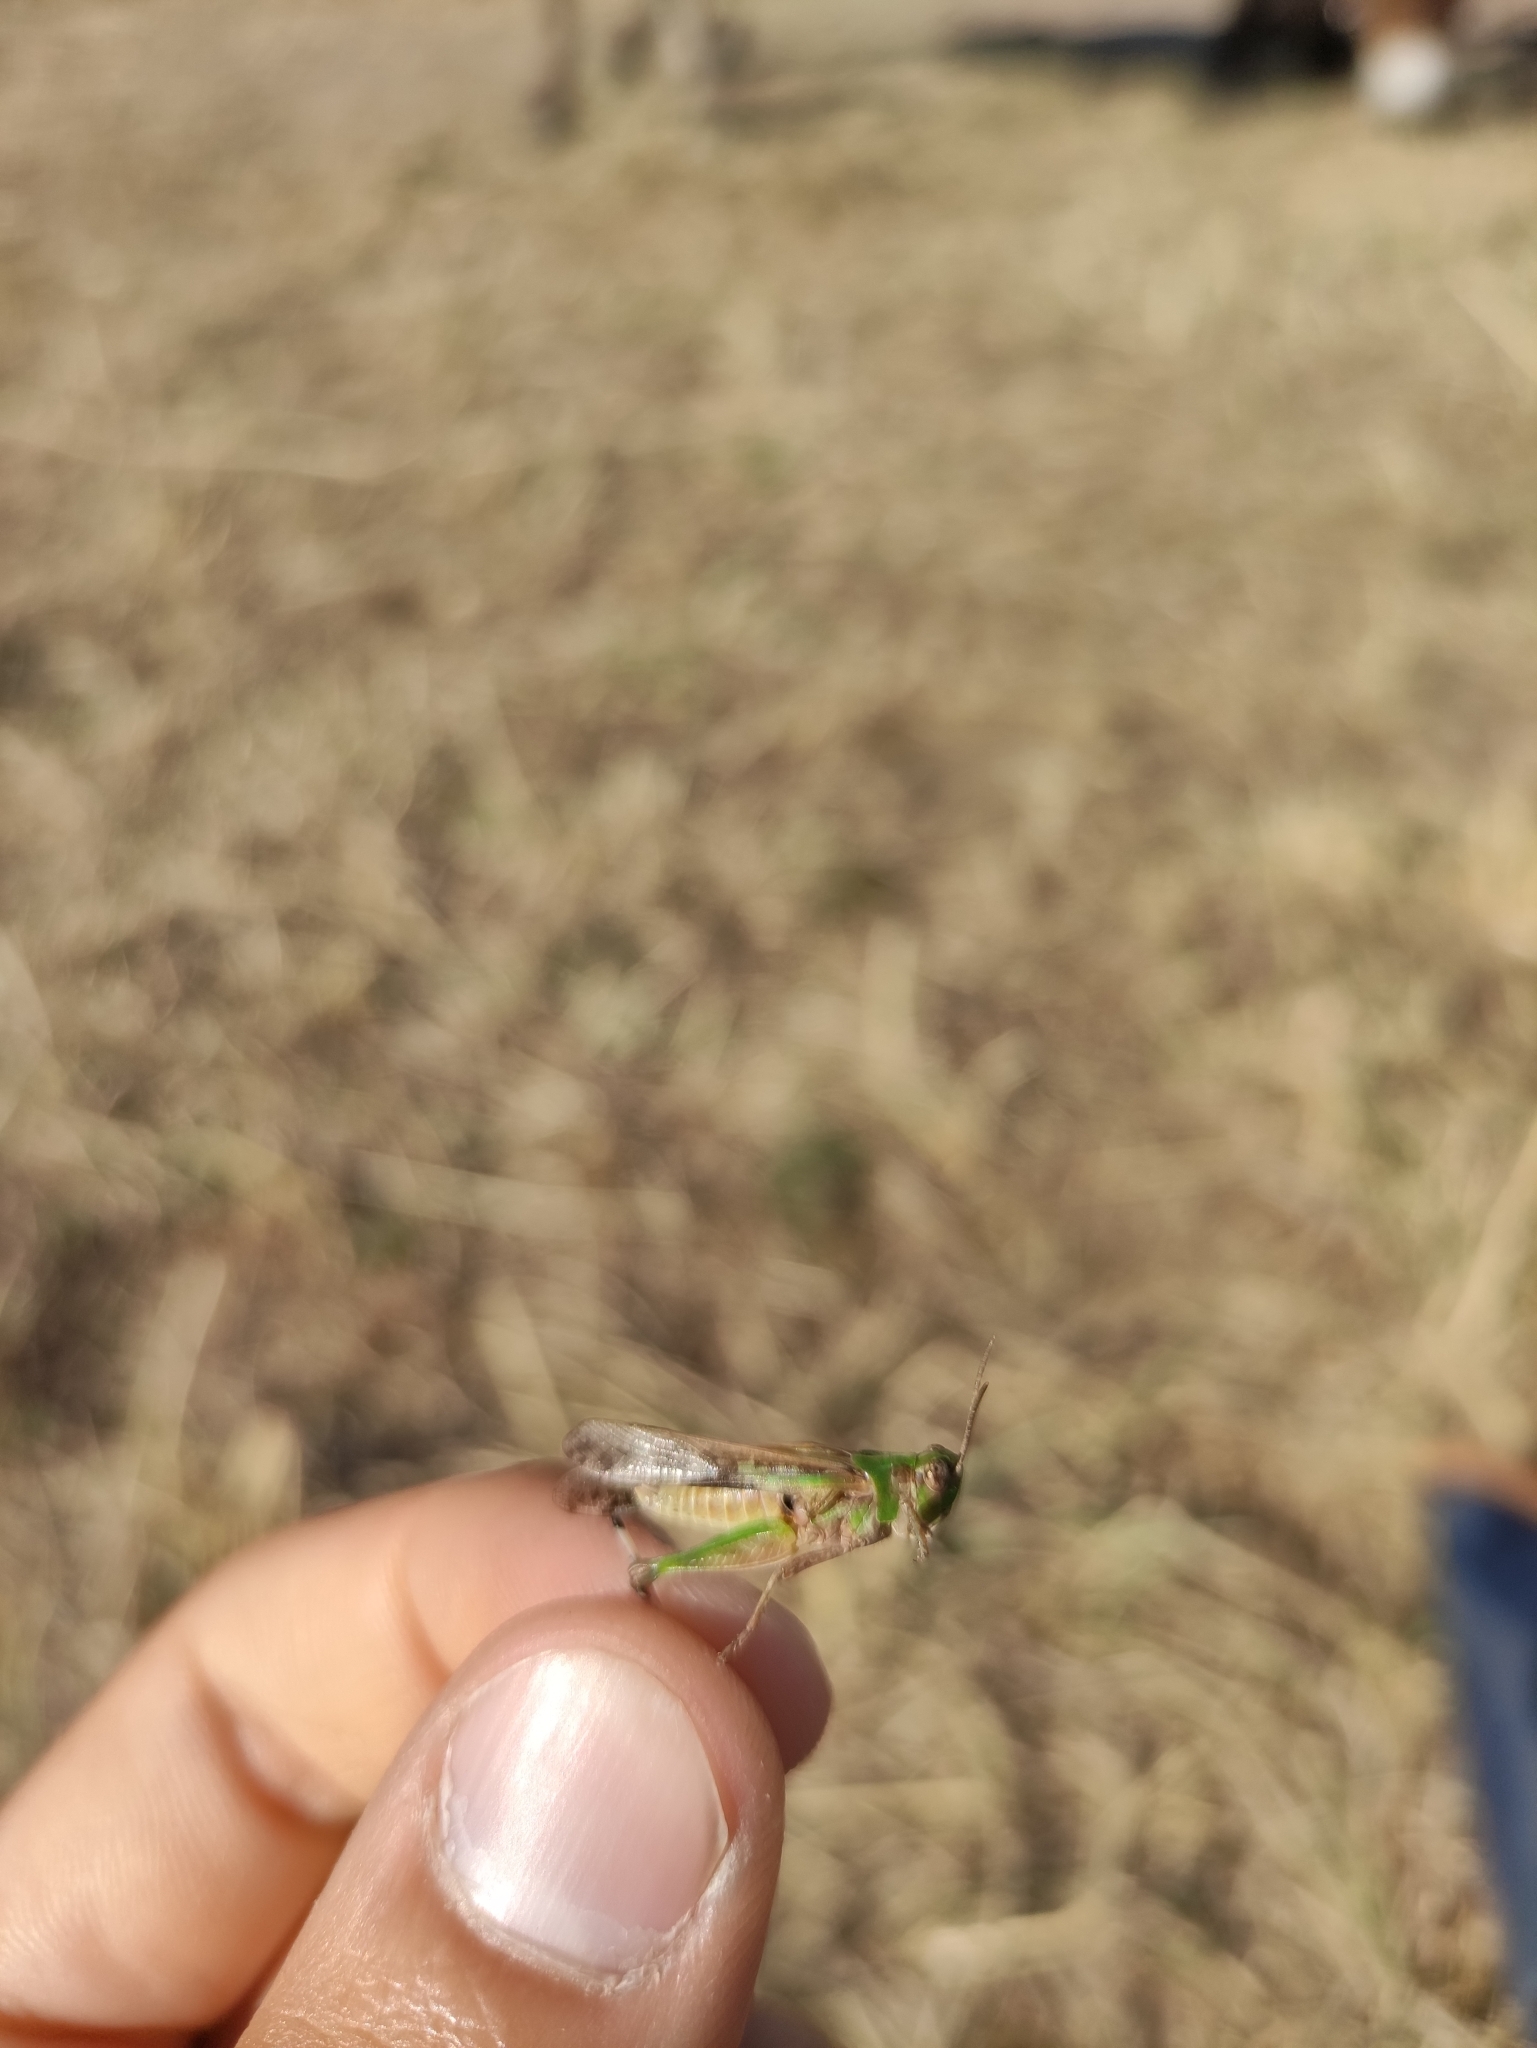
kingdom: Animalia
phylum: Arthropoda
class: Insecta
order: Orthoptera
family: Acrididae
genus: Aiolopus
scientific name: Aiolopus thalassinus
